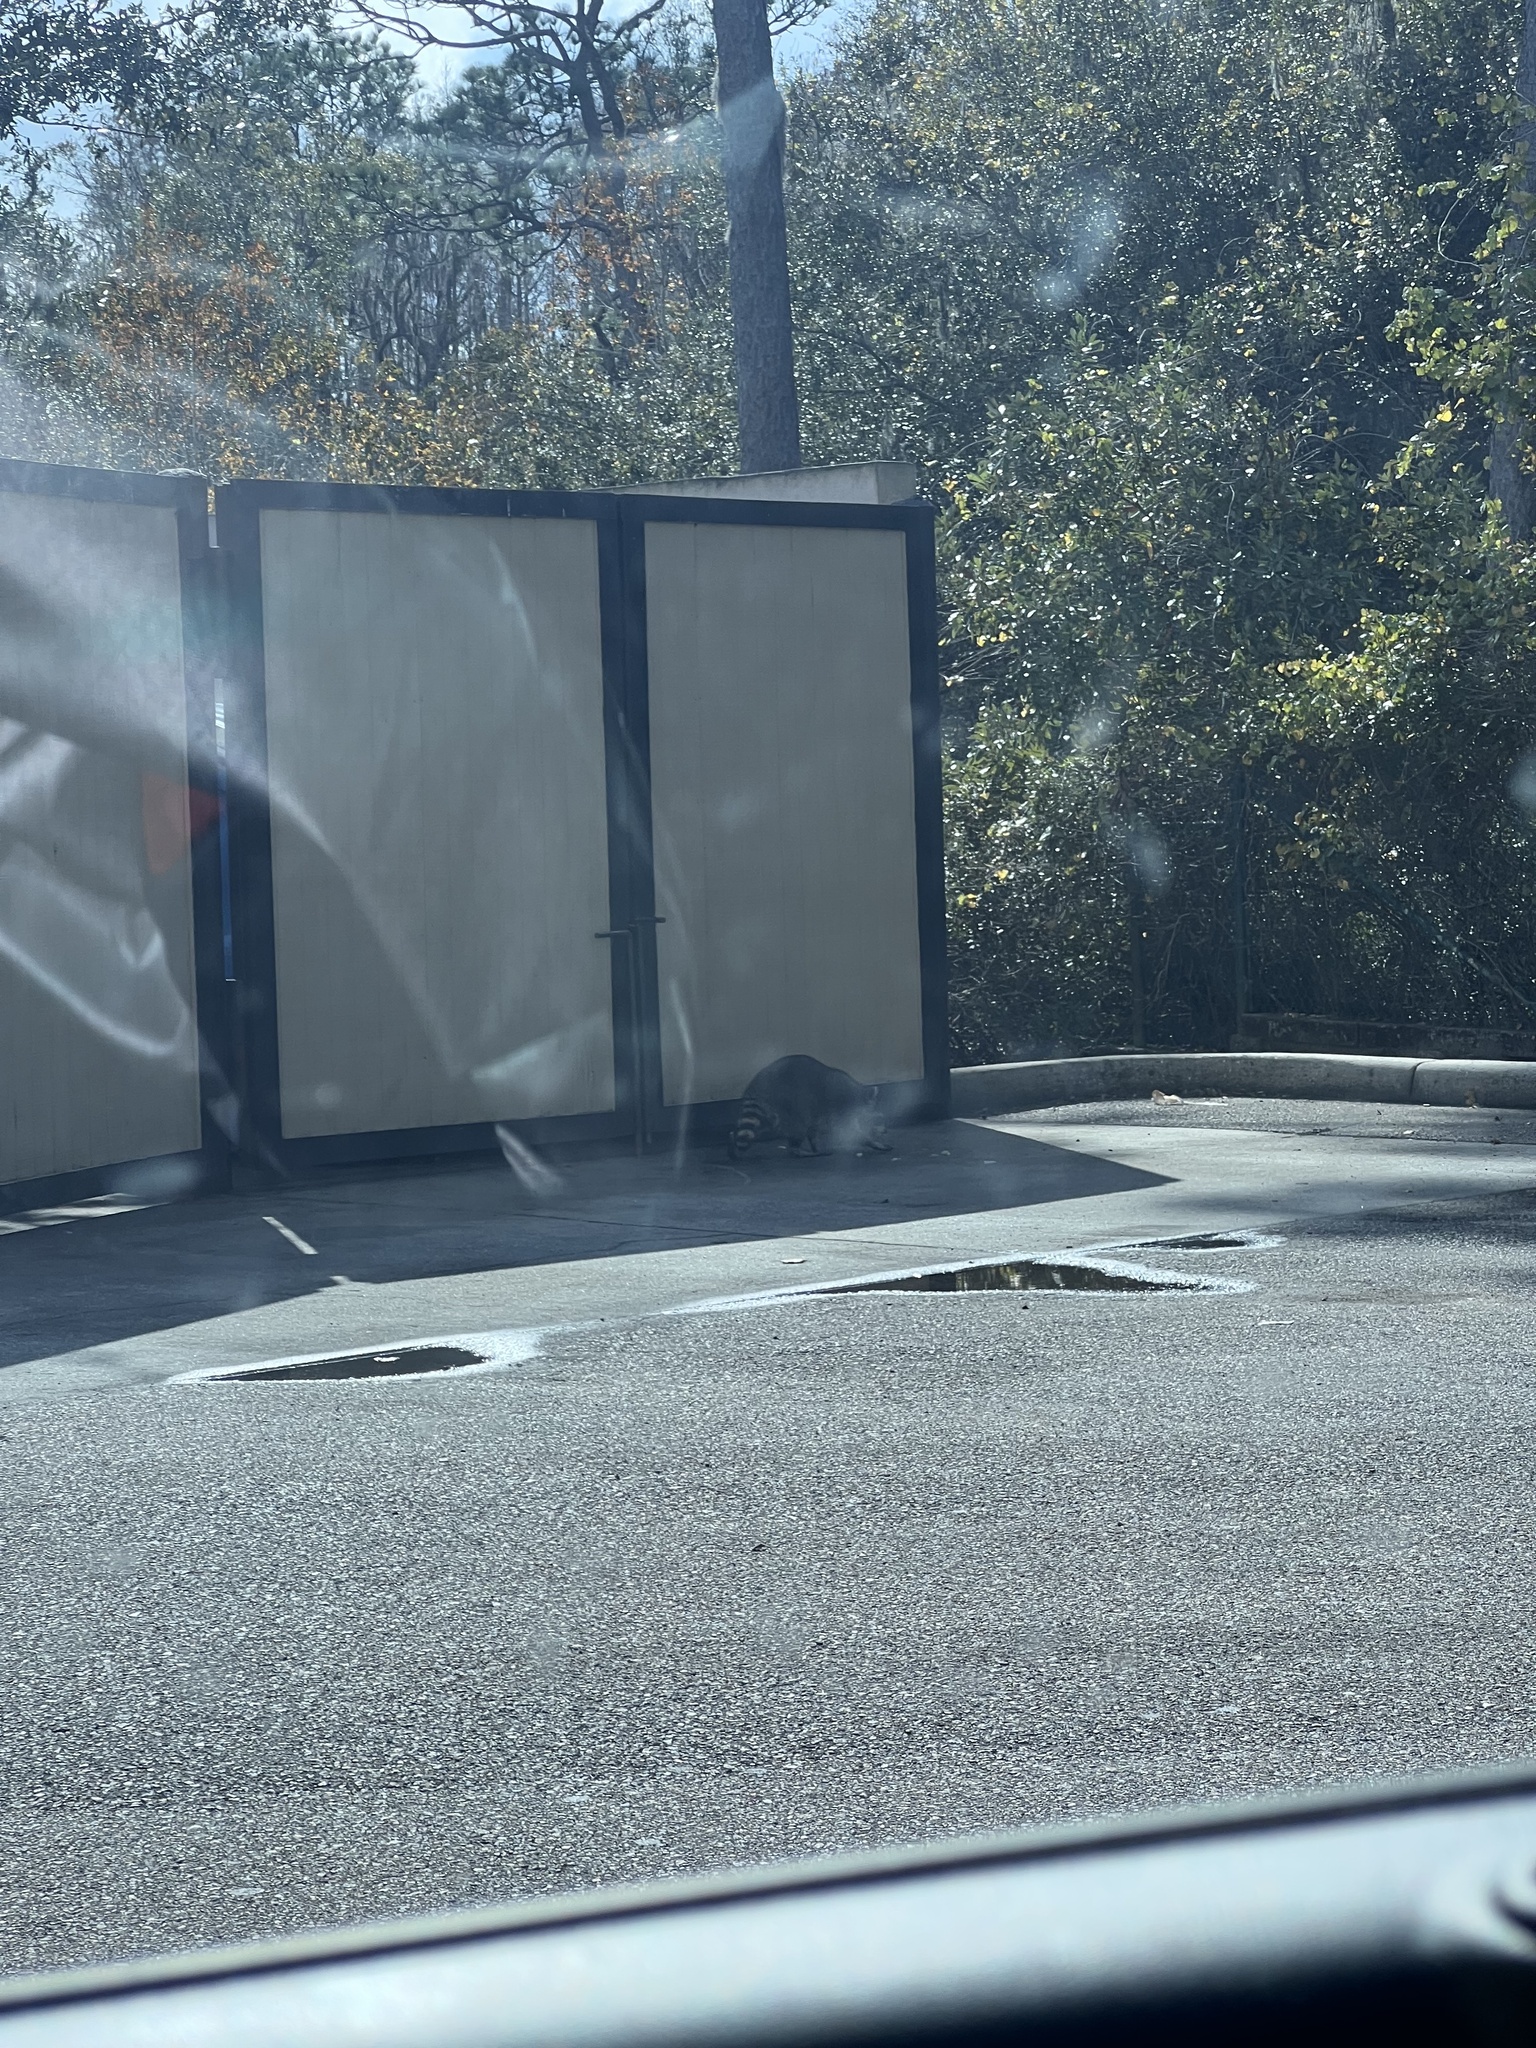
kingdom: Animalia
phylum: Chordata
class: Mammalia
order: Carnivora
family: Procyonidae
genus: Procyon
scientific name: Procyon lotor
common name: Raccoon
